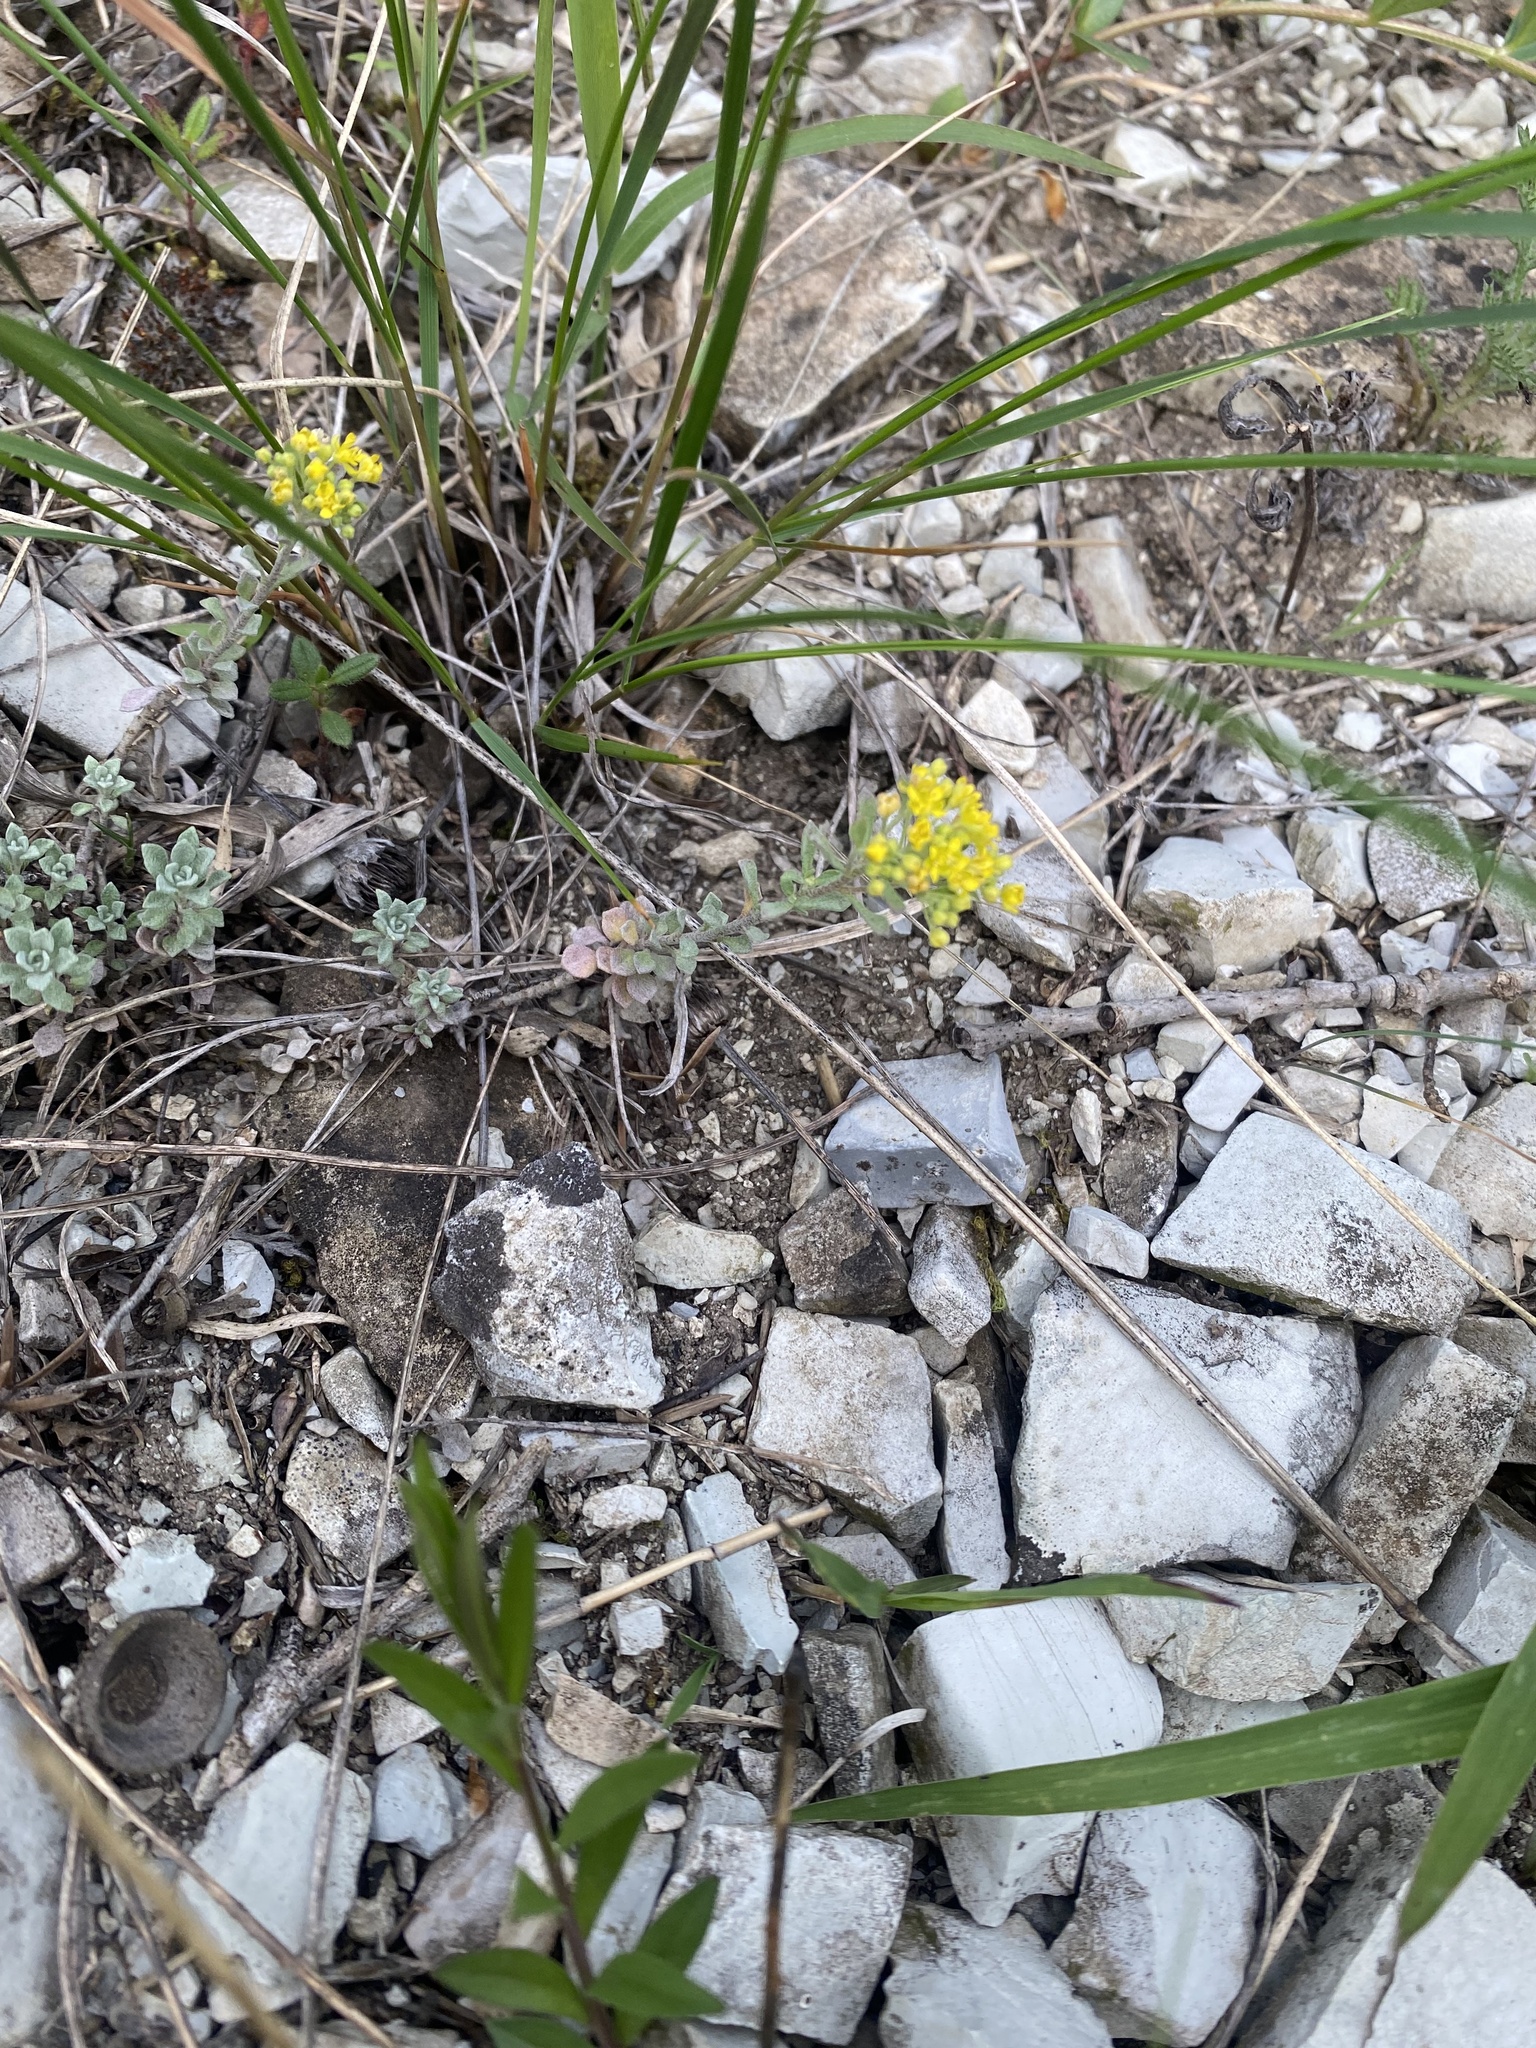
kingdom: Plantae
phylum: Tracheophyta
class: Magnoliopsida
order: Brassicales
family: Brassicaceae
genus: Odontarrhena
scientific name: Odontarrhena obtusifolia
